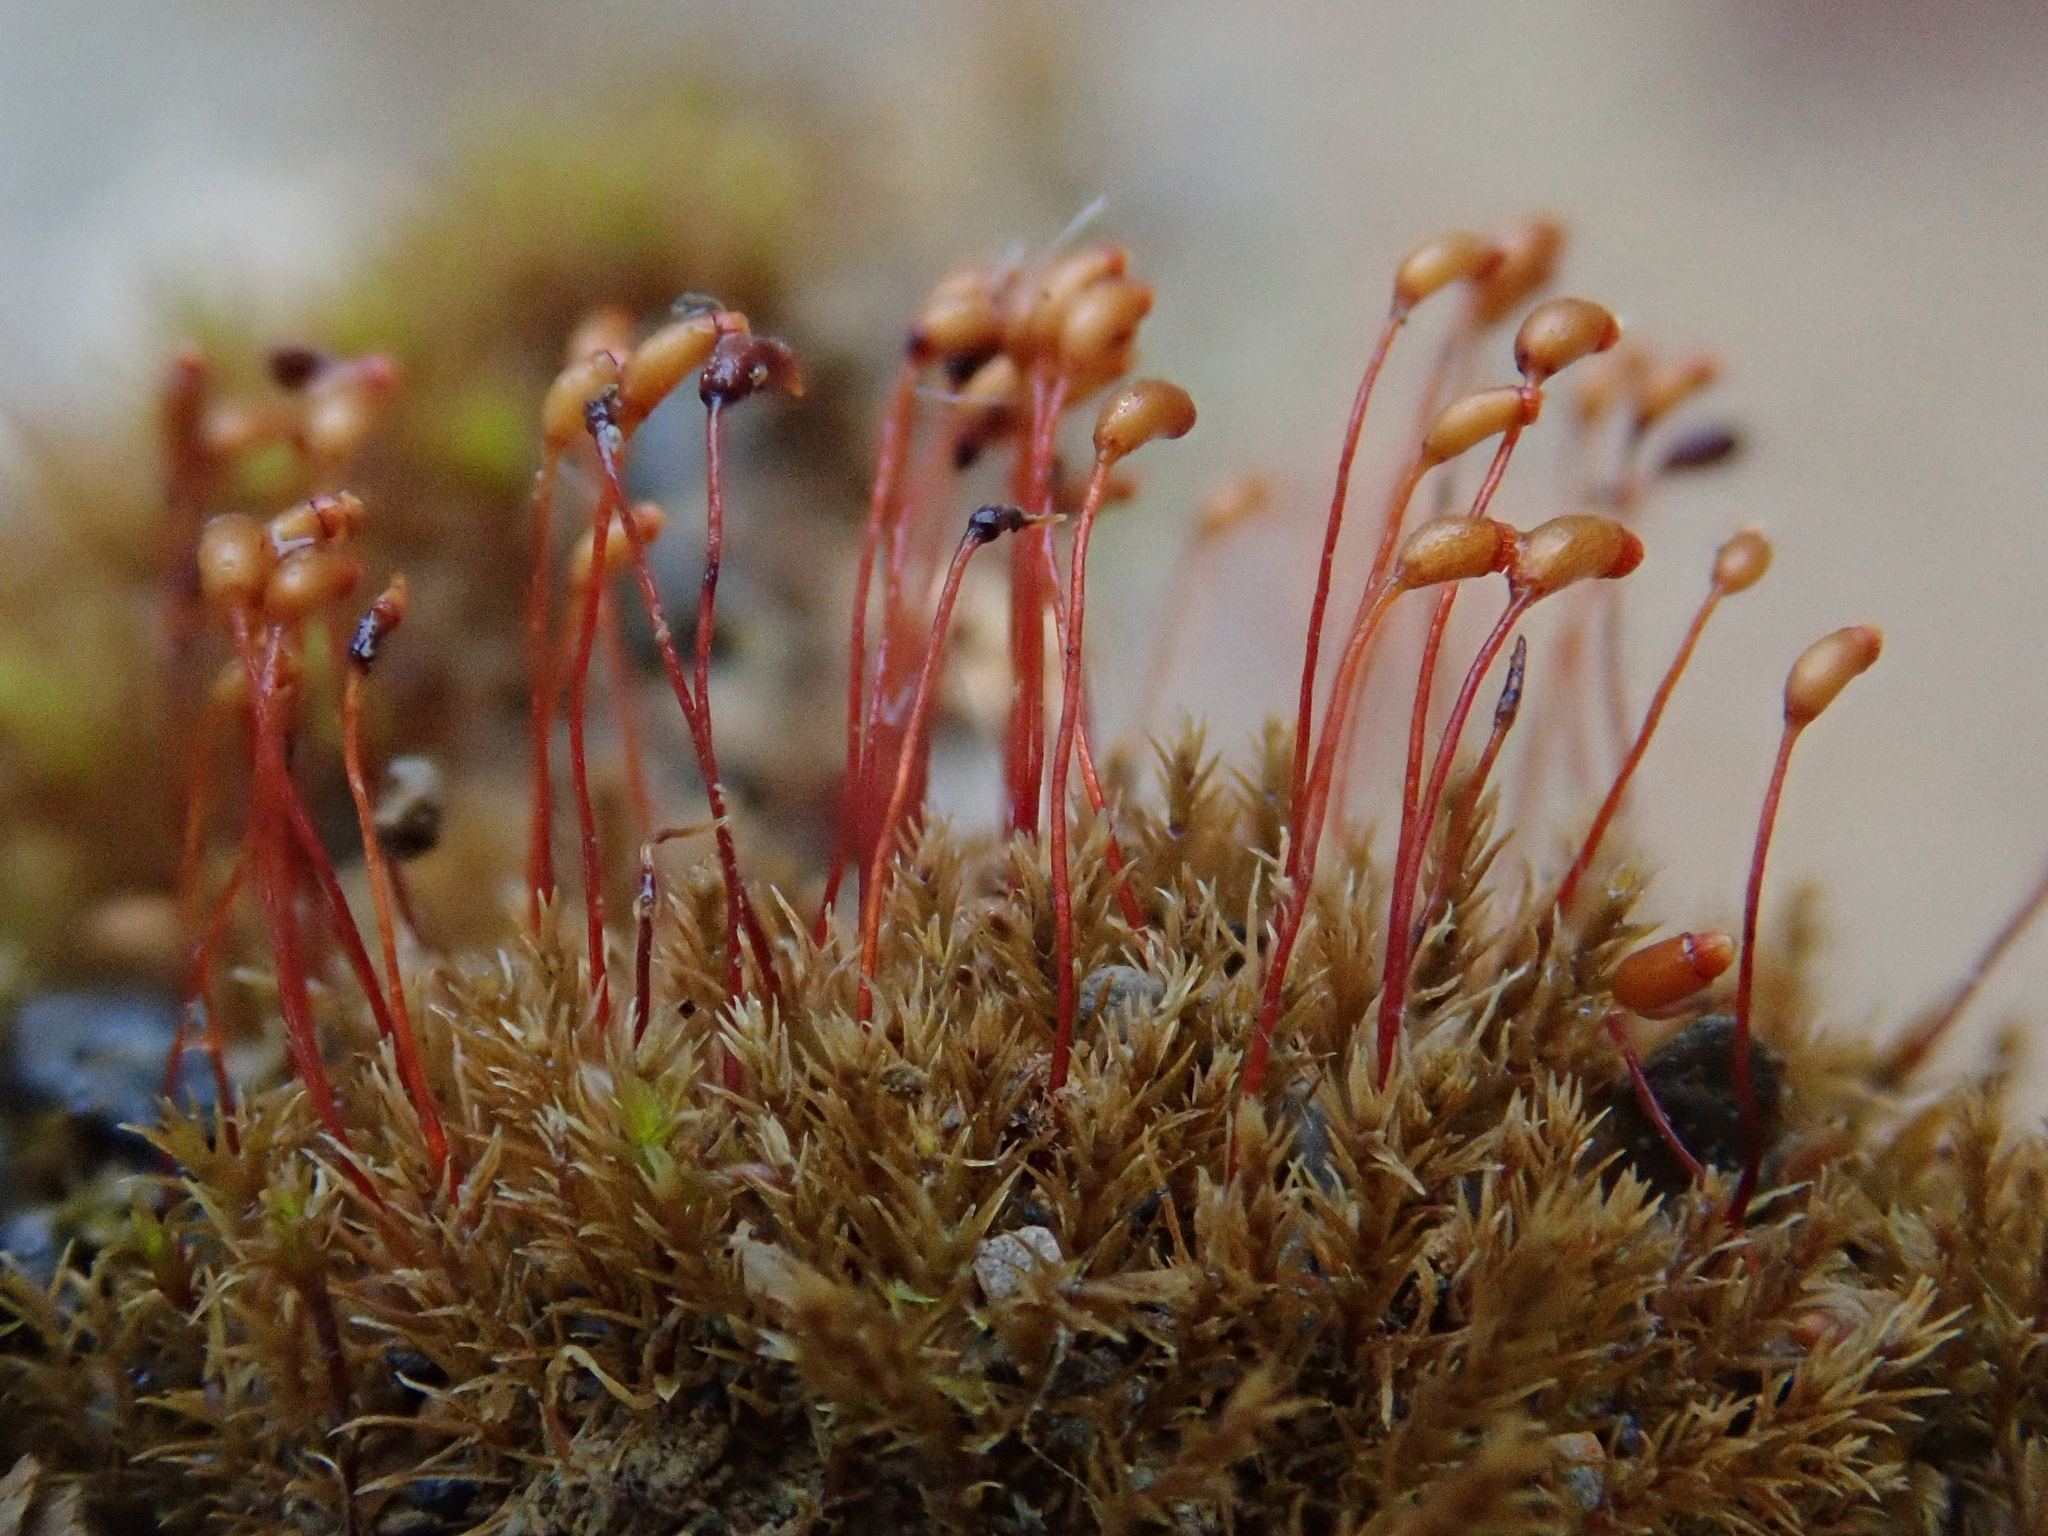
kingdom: Plantae
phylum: Bryophyta
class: Bryopsida
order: Dicranales
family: Dicranellaceae
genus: Dicranella
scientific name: Dicranella varia
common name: Variable forklet moss
